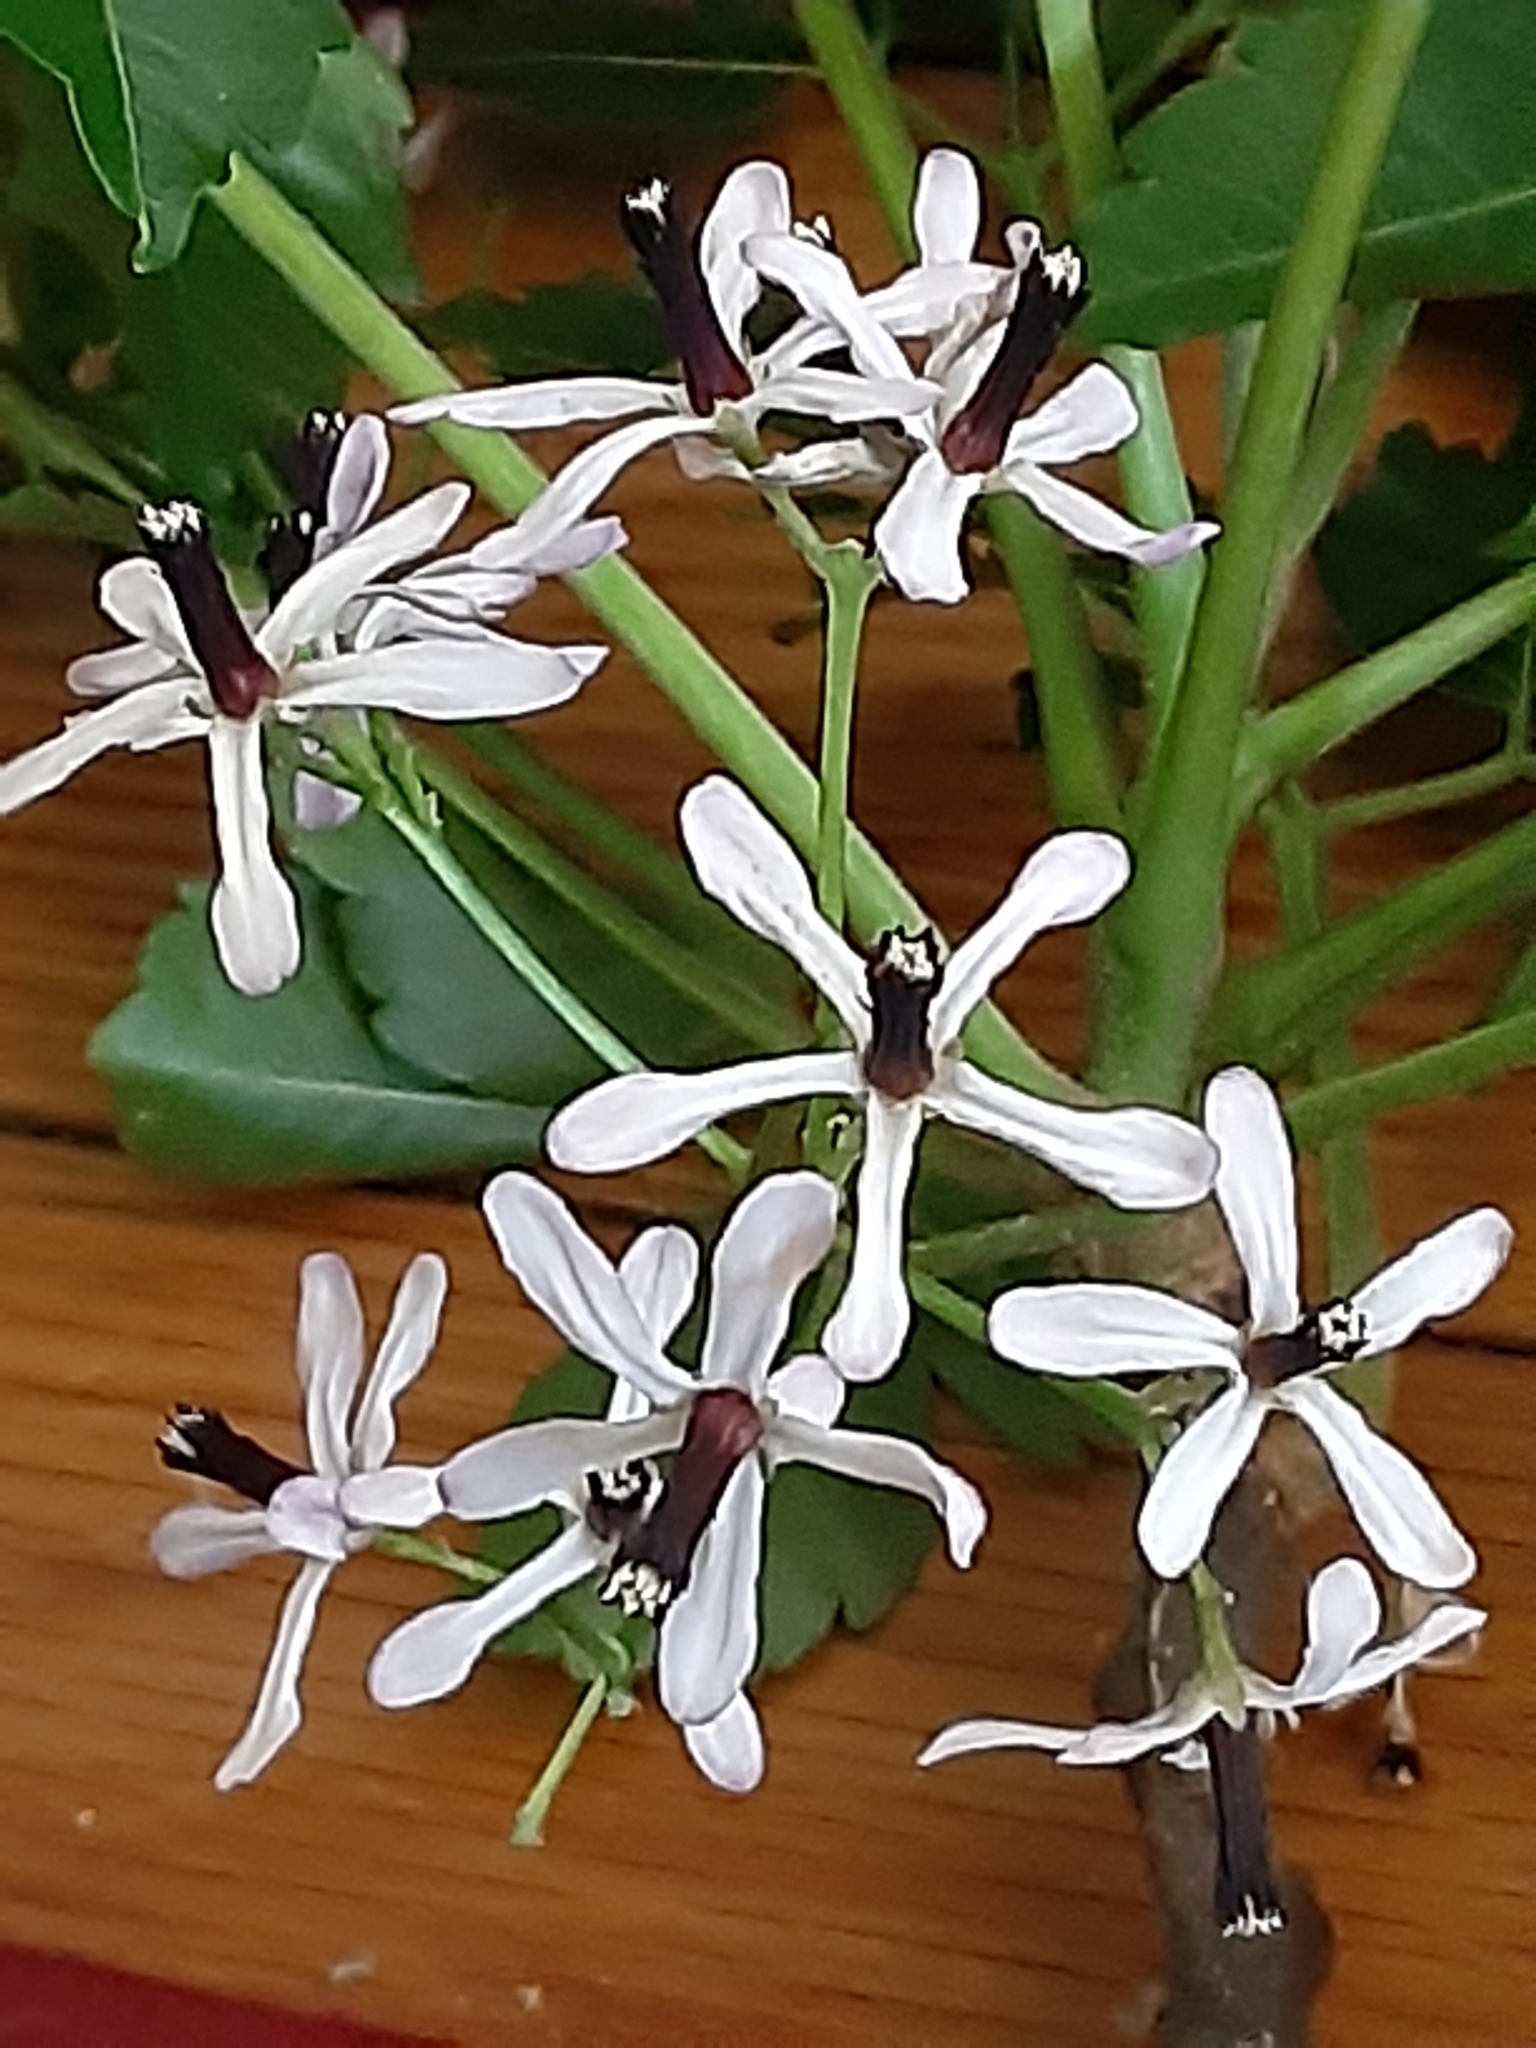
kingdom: Plantae
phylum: Tracheophyta
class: Magnoliopsida
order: Sapindales
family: Meliaceae
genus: Melia
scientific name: Melia azedarach
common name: Chinaberrytree
